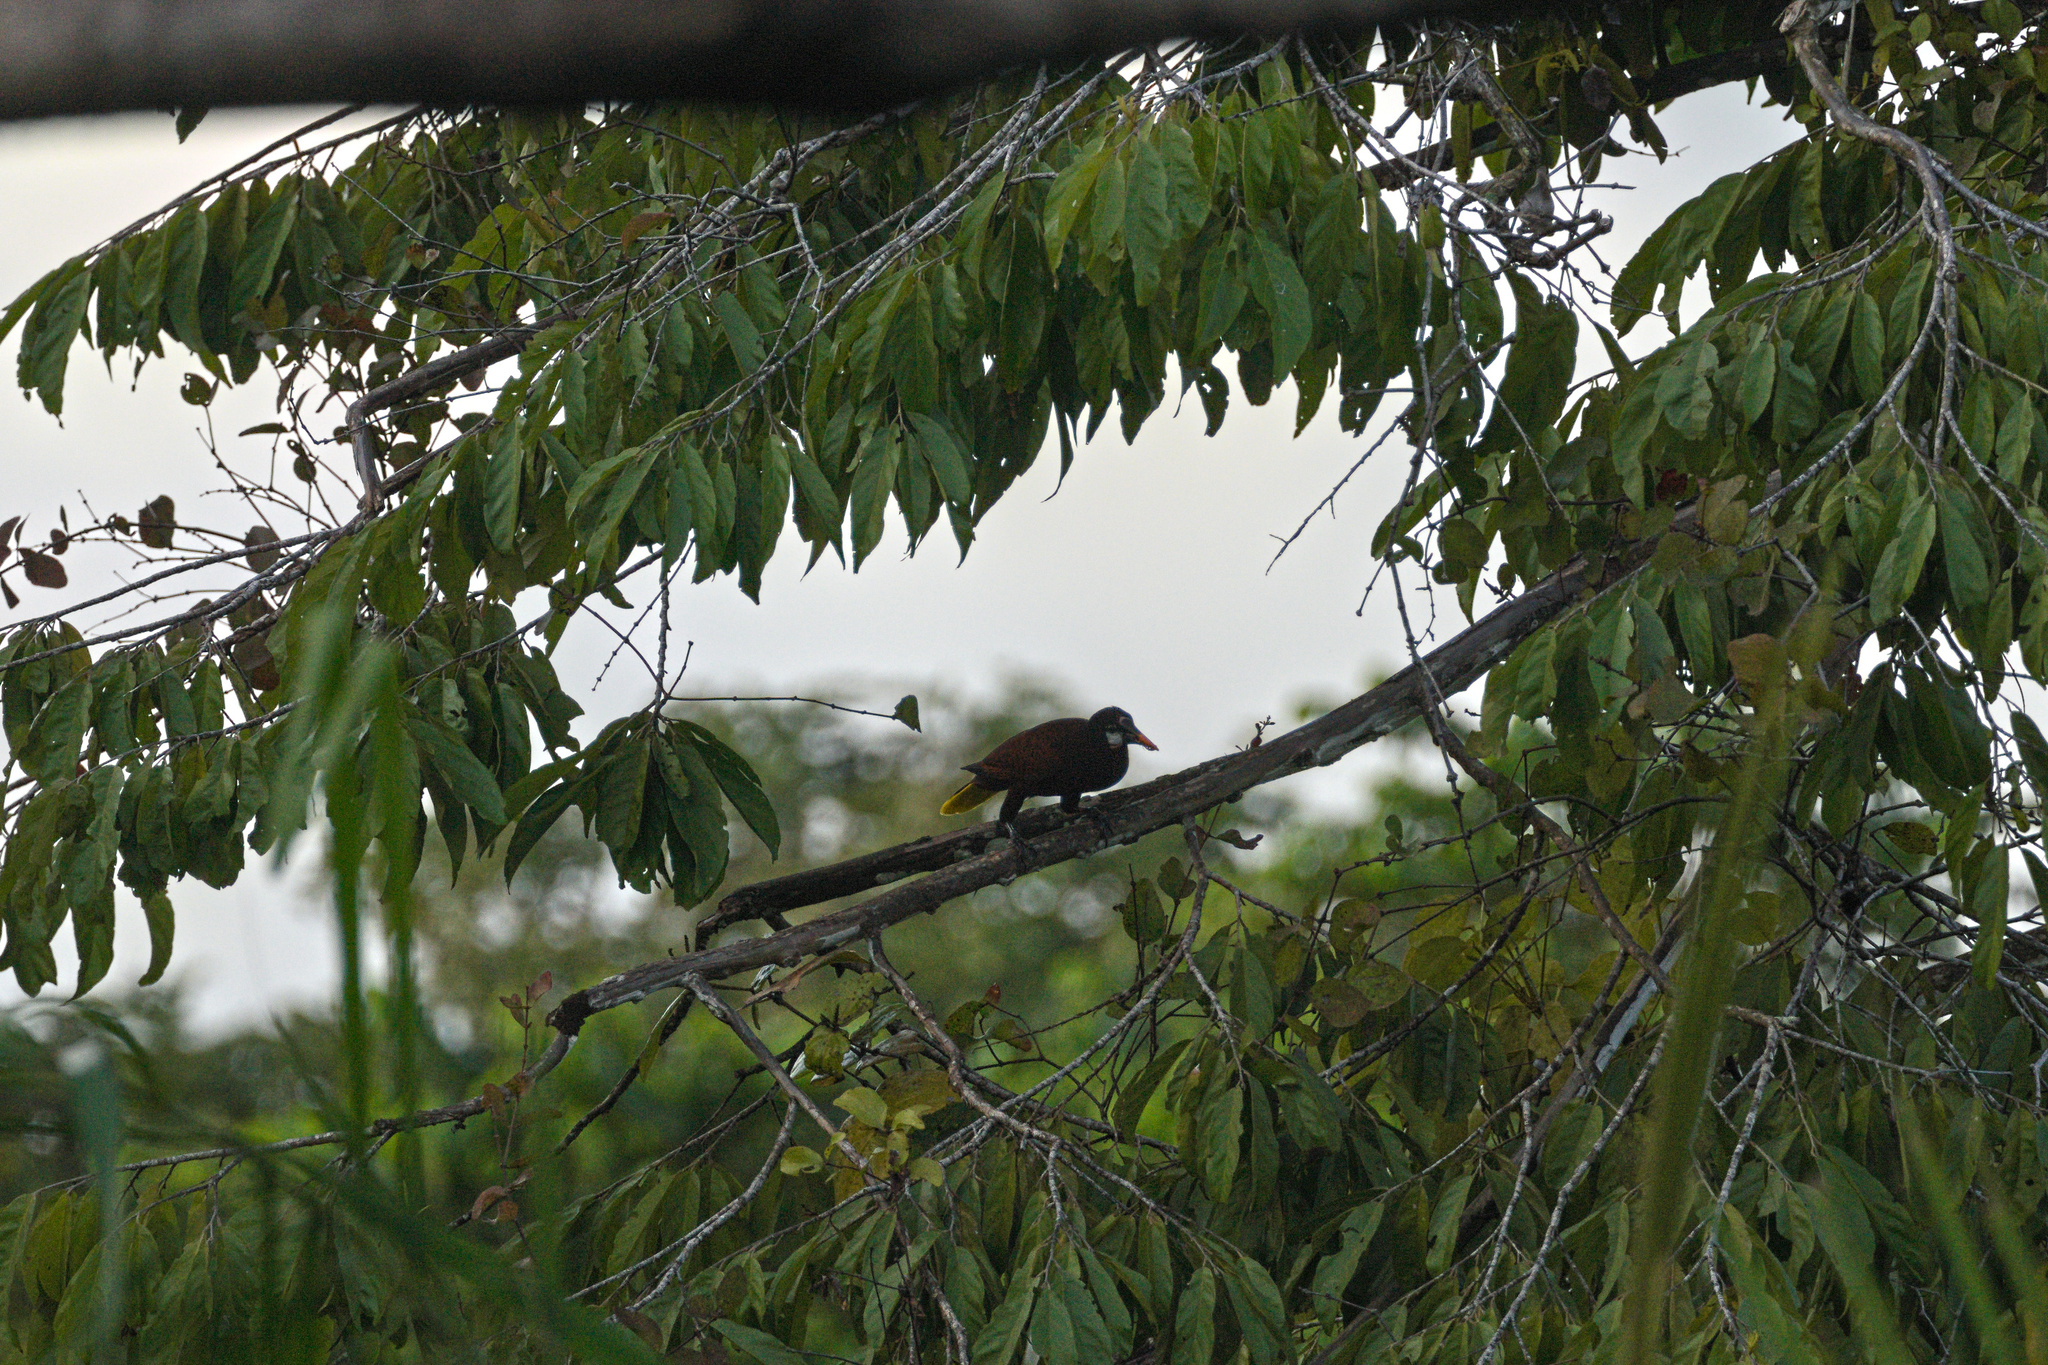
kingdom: Animalia
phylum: Chordata
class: Aves
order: Passeriformes
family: Icteridae
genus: Psarocolius
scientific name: Psarocolius montezuma
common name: Montezuma oropendola
